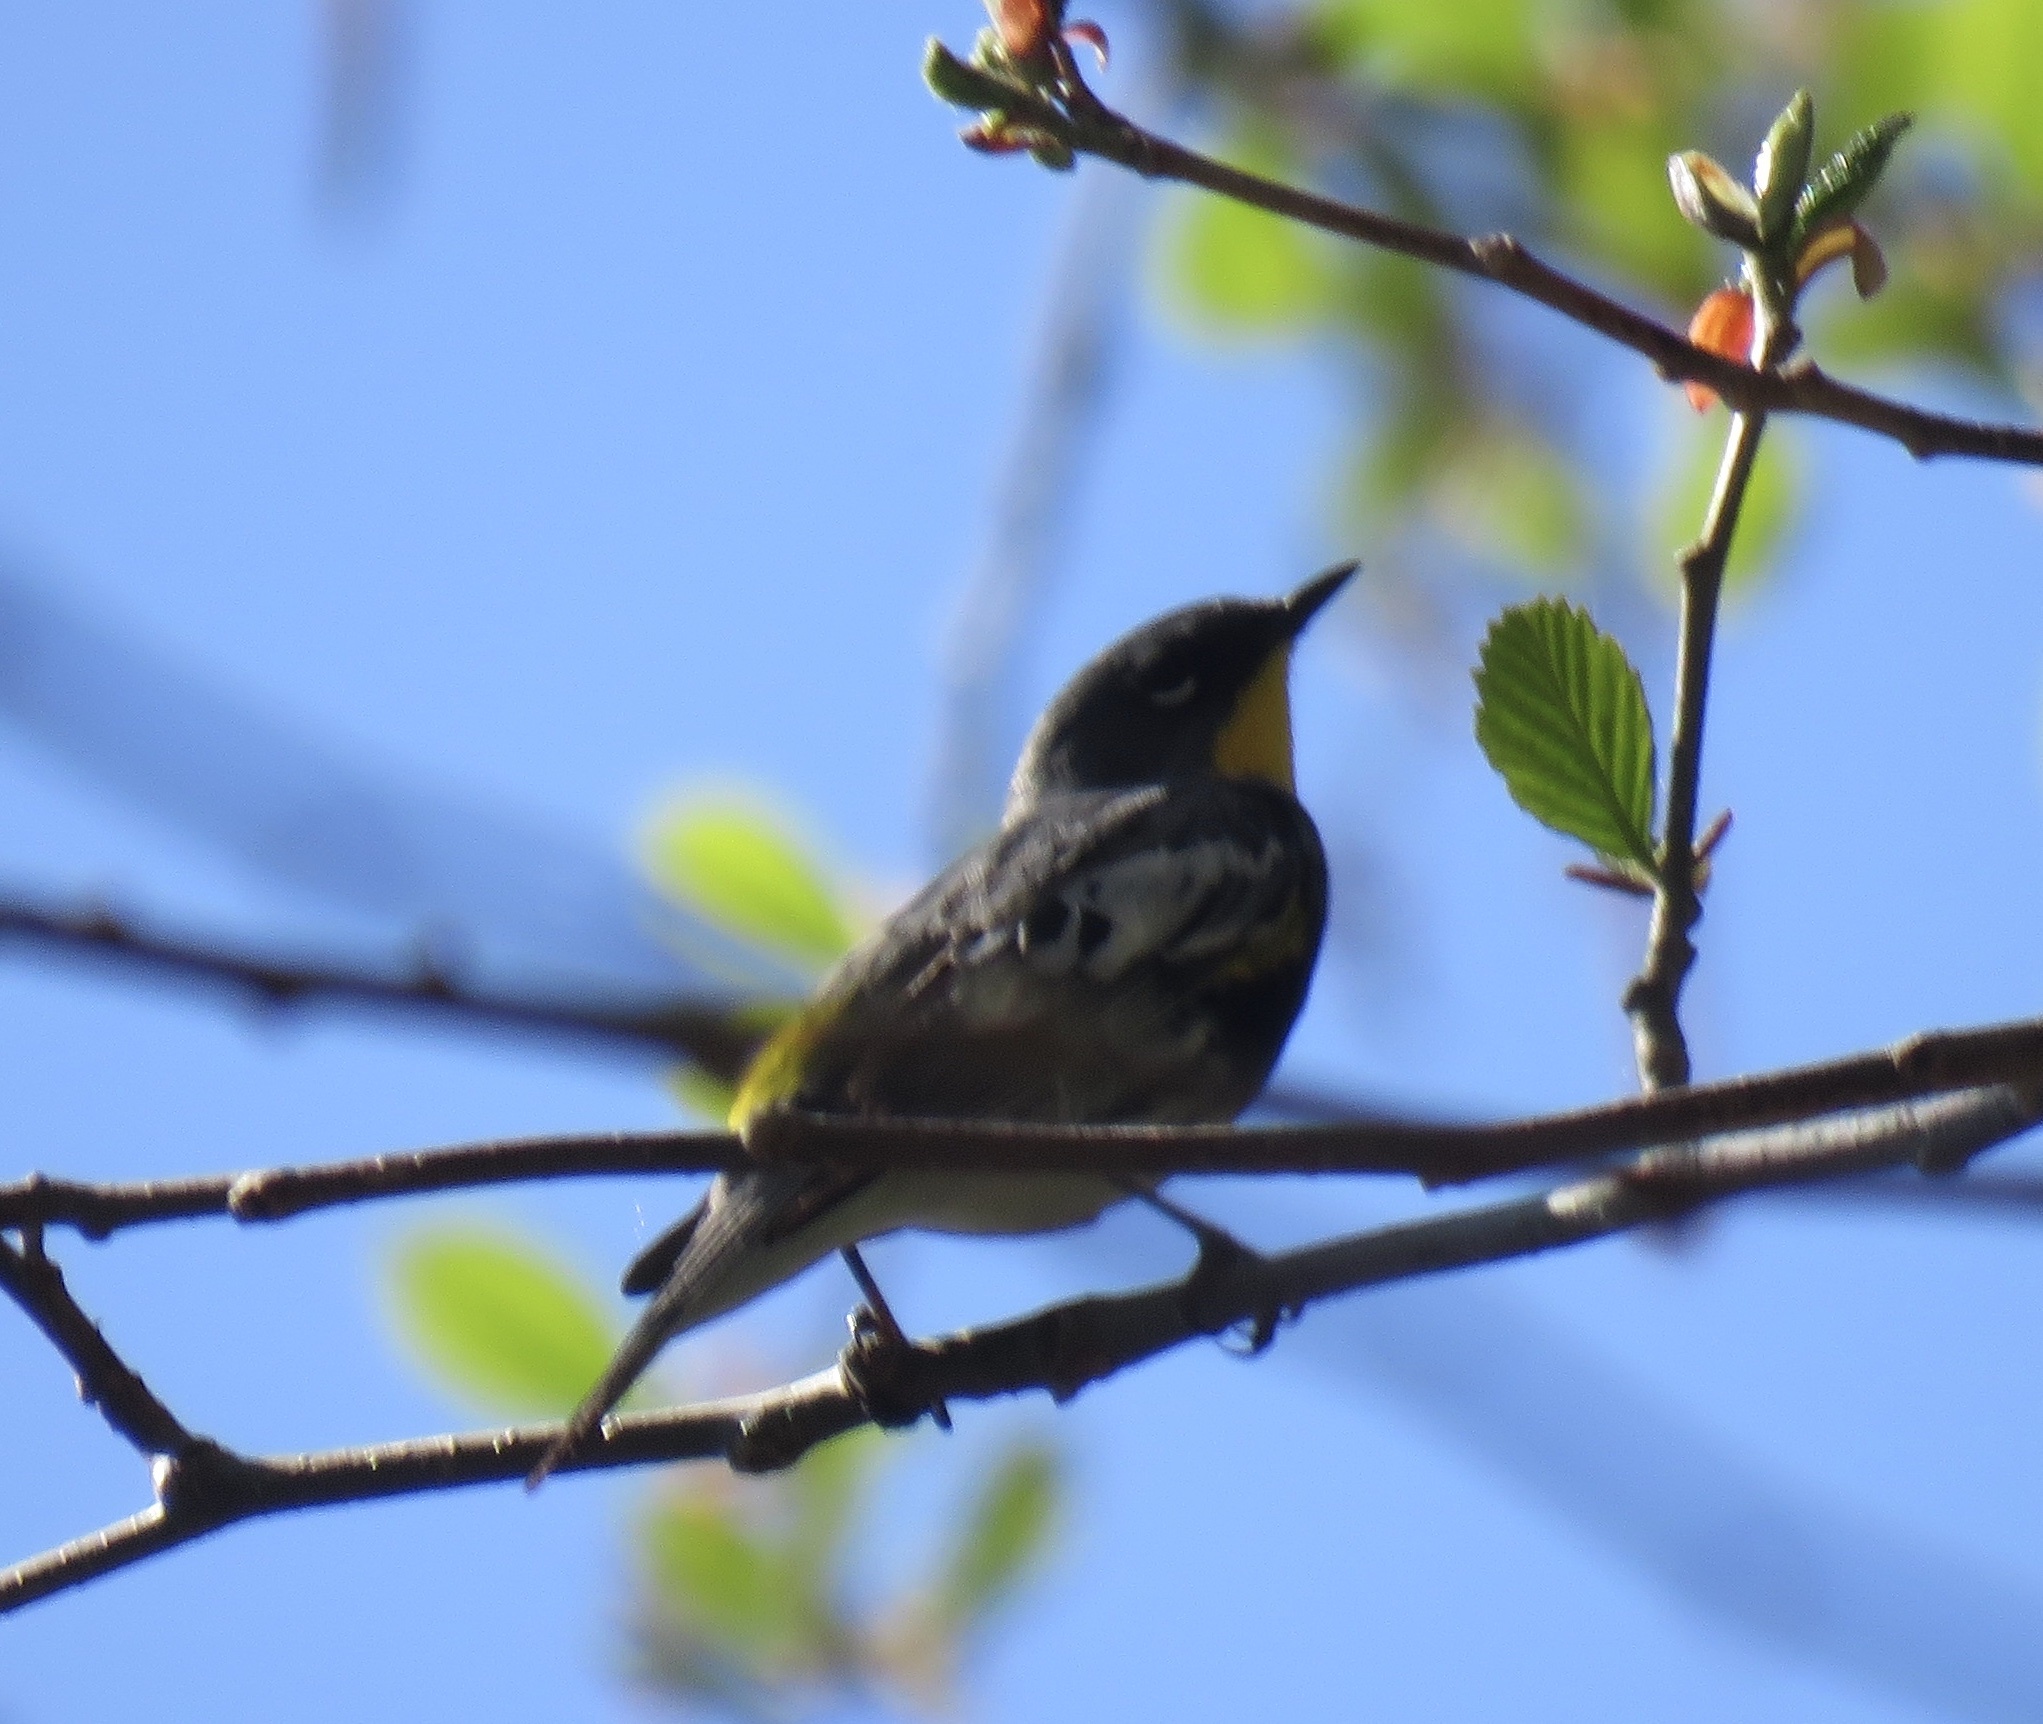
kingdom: Animalia
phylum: Chordata
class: Aves
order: Passeriformes
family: Parulidae
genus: Setophaga
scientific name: Setophaga coronata
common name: Myrtle warbler
